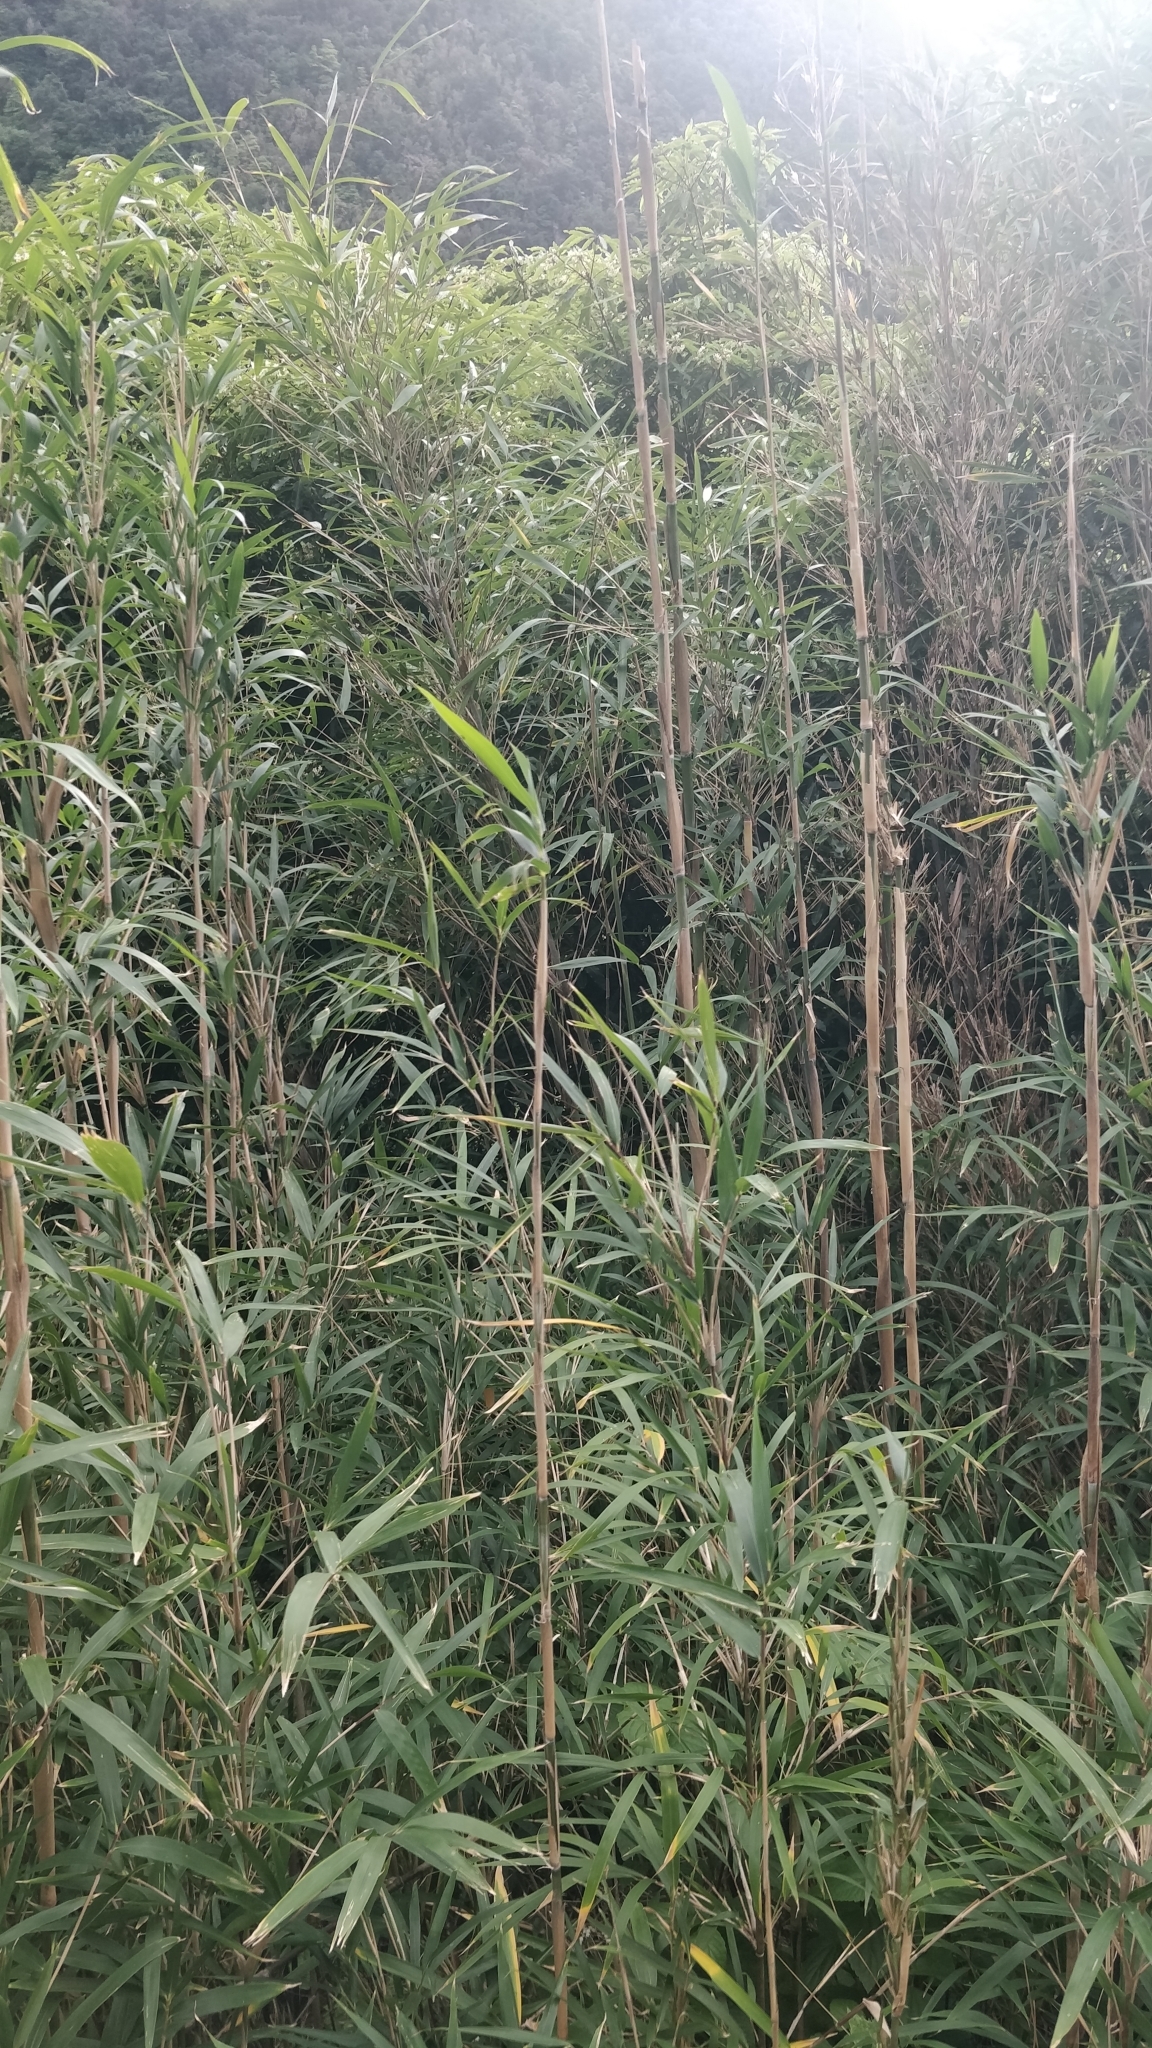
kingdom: Plantae
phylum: Tracheophyta
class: Liliopsida
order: Poales
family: Poaceae
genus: Pseudosasa
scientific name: Pseudosasa japonica
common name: Arrow bamboo
